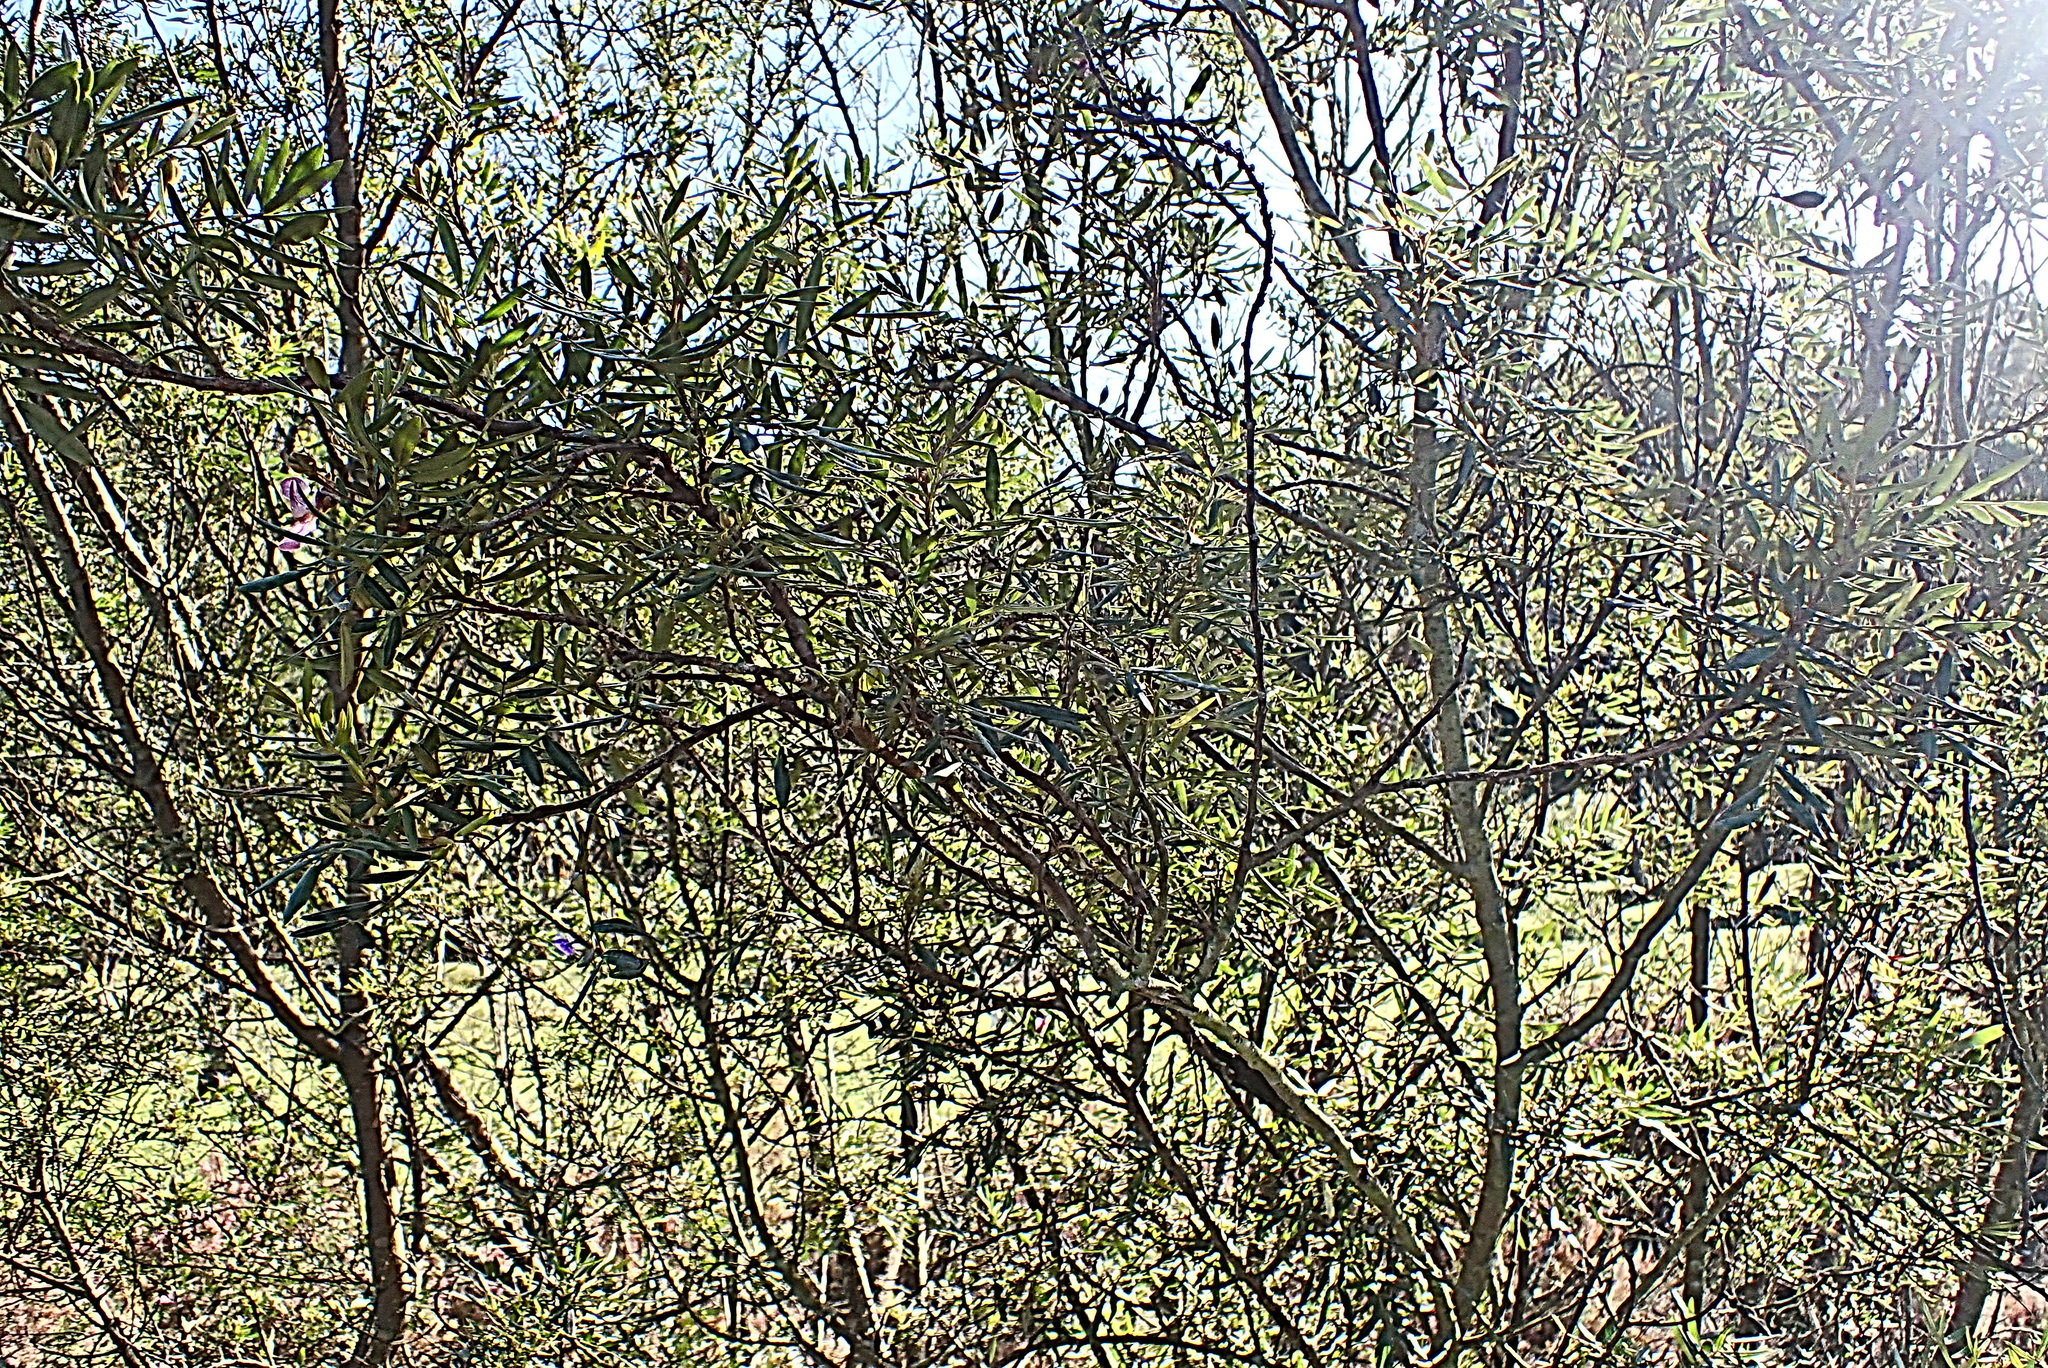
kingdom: Plantae
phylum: Tracheophyta
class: Magnoliopsida
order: Fabales
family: Fabaceae
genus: Virgilia
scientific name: Virgilia divaricata
